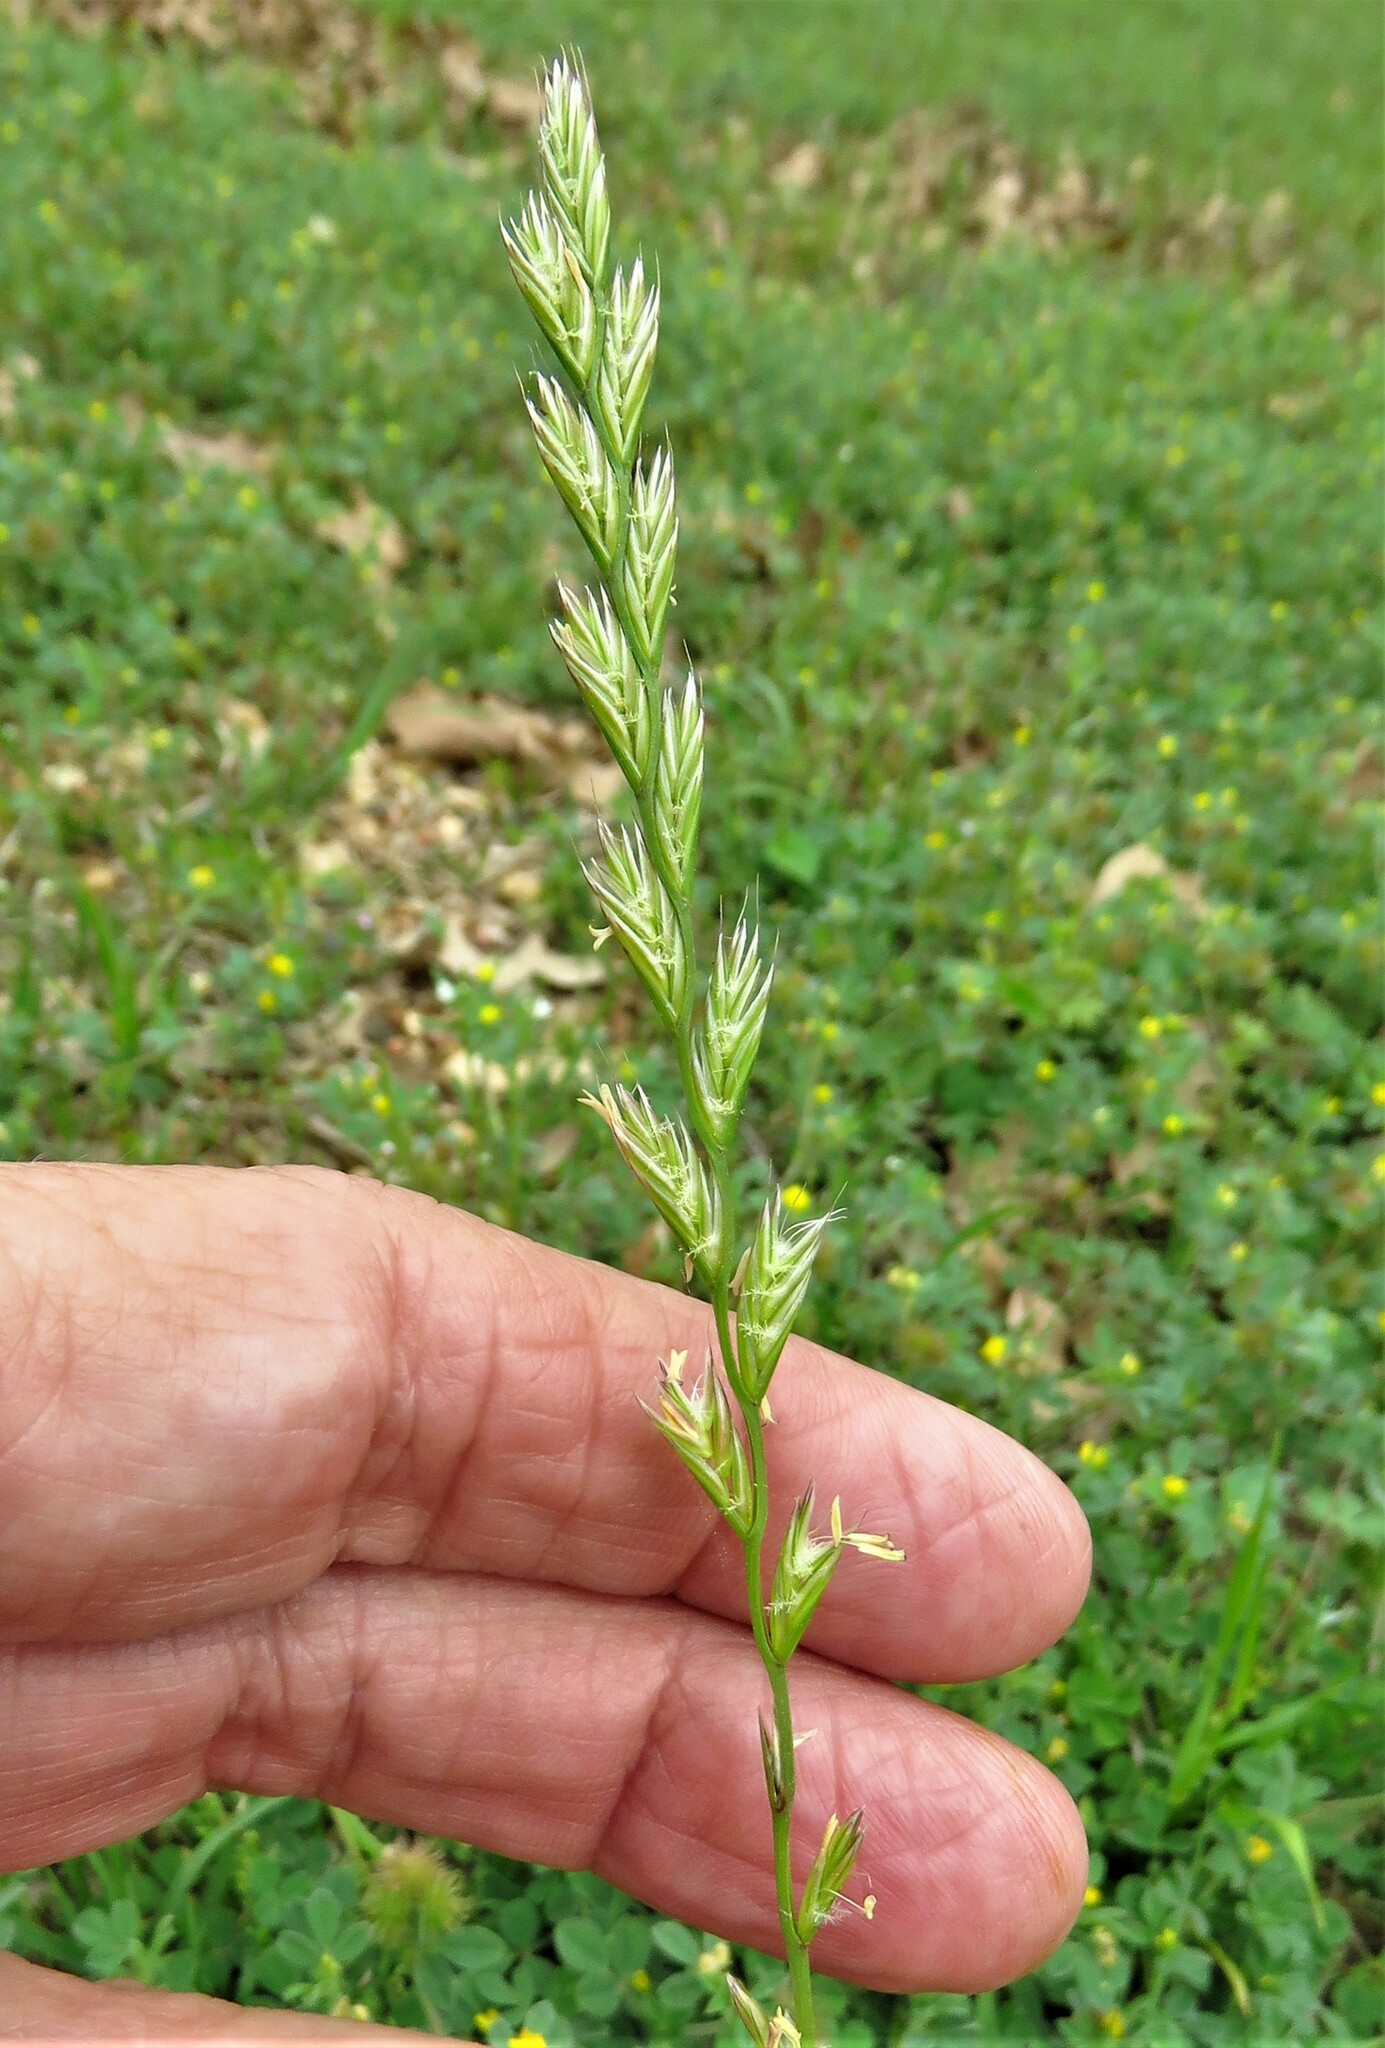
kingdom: Plantae
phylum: Tracheophyta
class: Liliopsida
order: Poales
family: Poaceae
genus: Lolium
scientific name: Lolium perenne
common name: Perennial ryegrass
